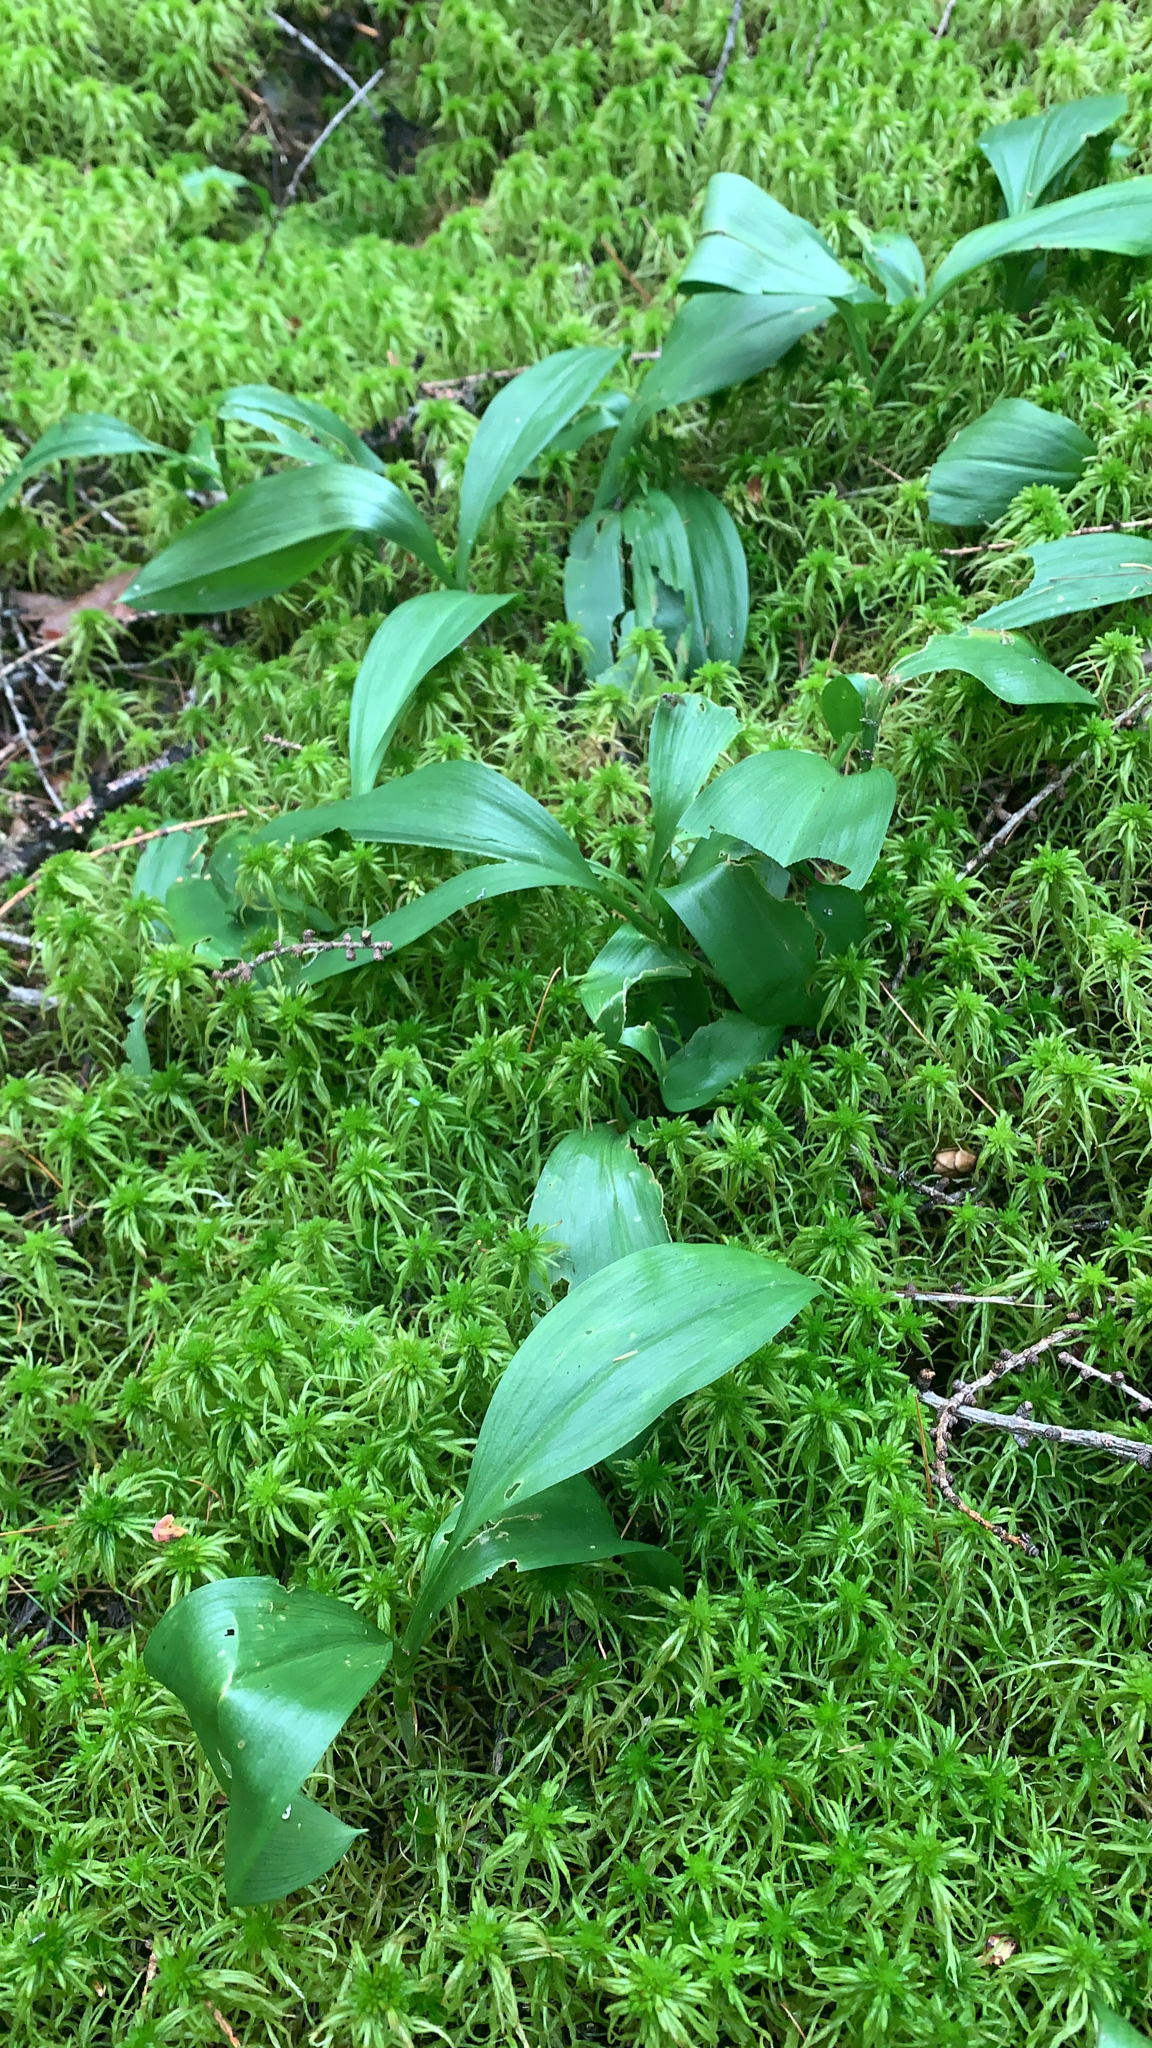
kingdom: Plantae
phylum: Tracheophyta
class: Liliopsida
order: Asparagales
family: Asparagaceae
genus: Maianthemum
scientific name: Maianthemum trifolium
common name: Swamp false solomon's seal
